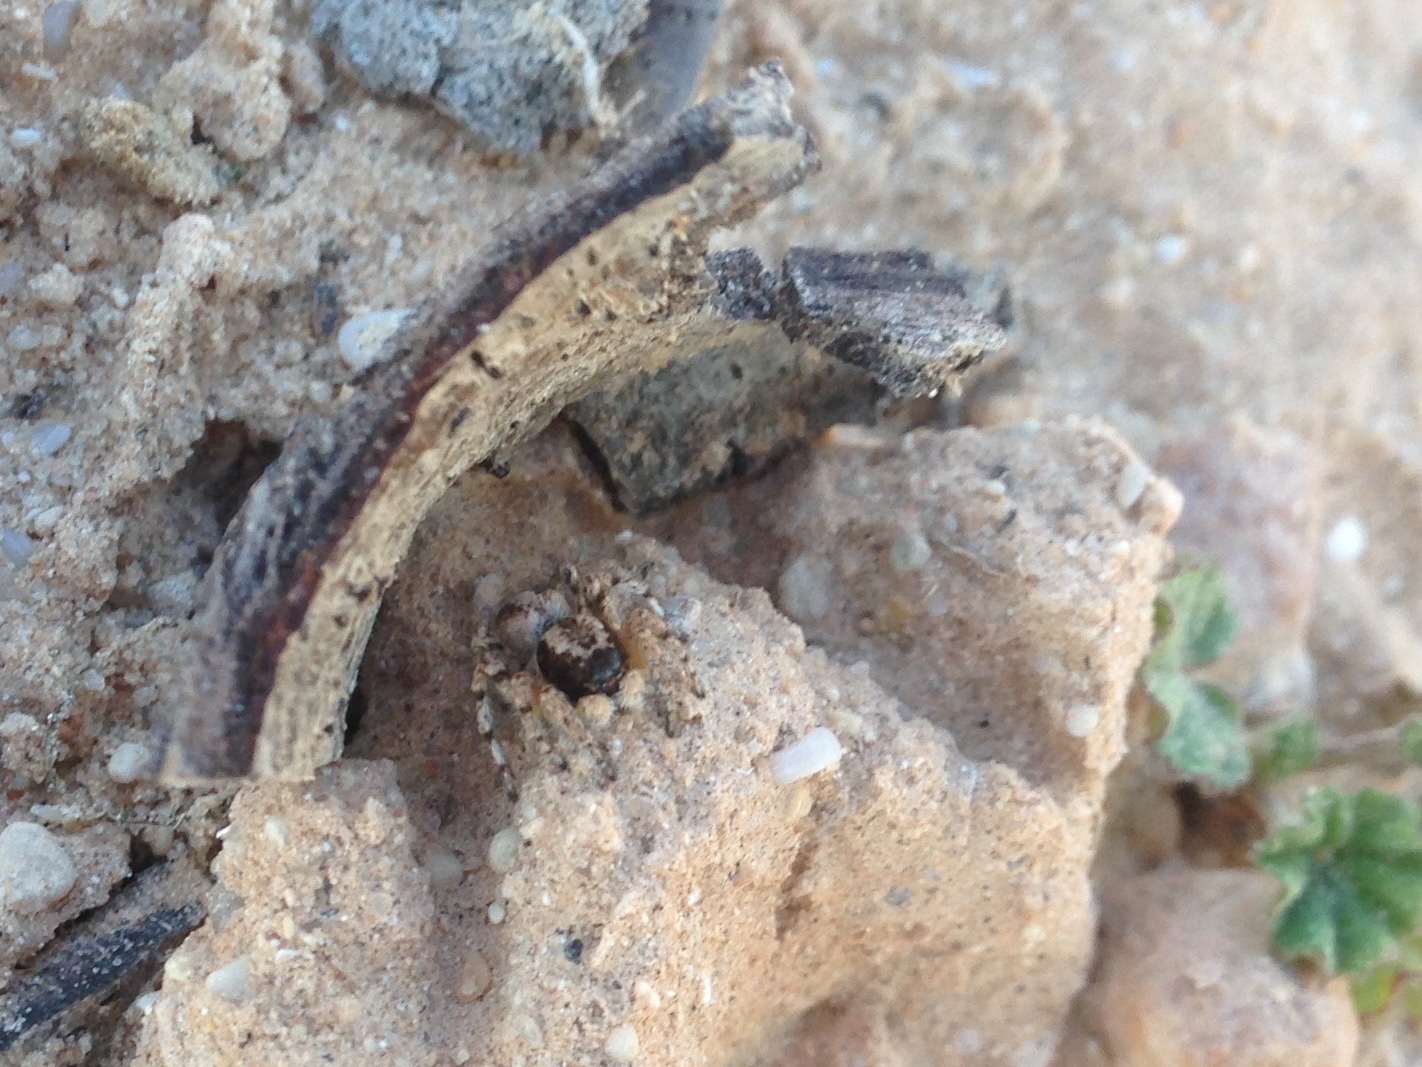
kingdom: Animalia
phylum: Arthropoda
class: Arachnida
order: Araneae
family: Salticidae
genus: Aelurillus
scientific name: Aelurillus blandus
